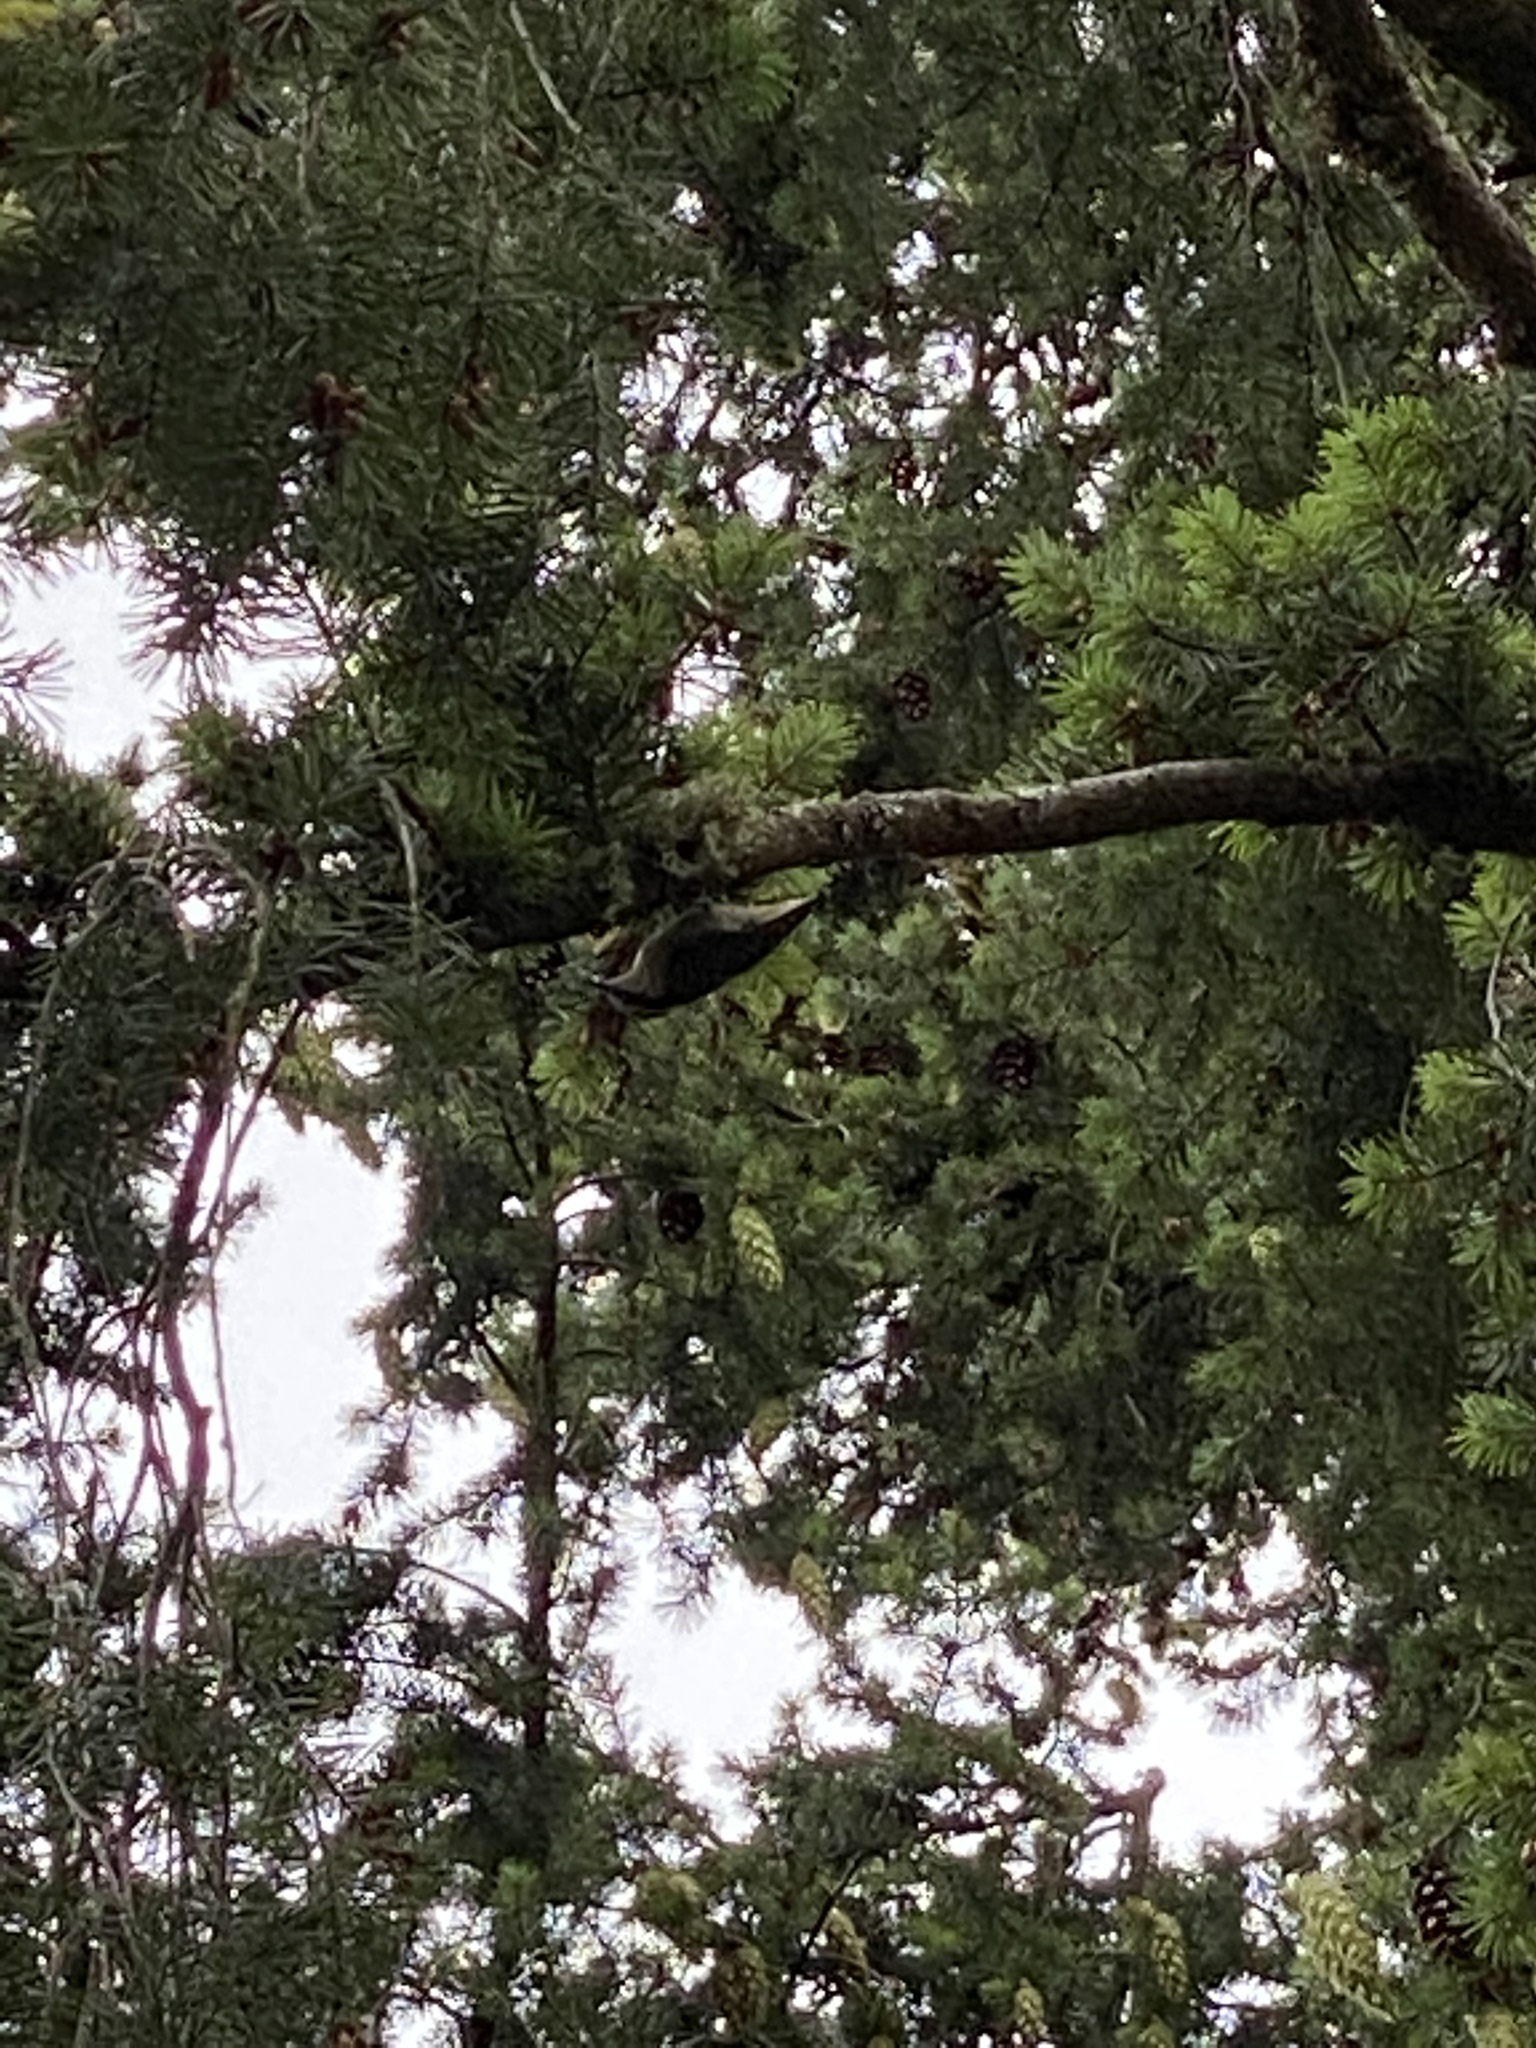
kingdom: Animalia
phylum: Chordata
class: Aves
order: Passeriformes
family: Sittidae
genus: Sitta
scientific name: Sitta canadensis
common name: Red-breasted nuthatch
